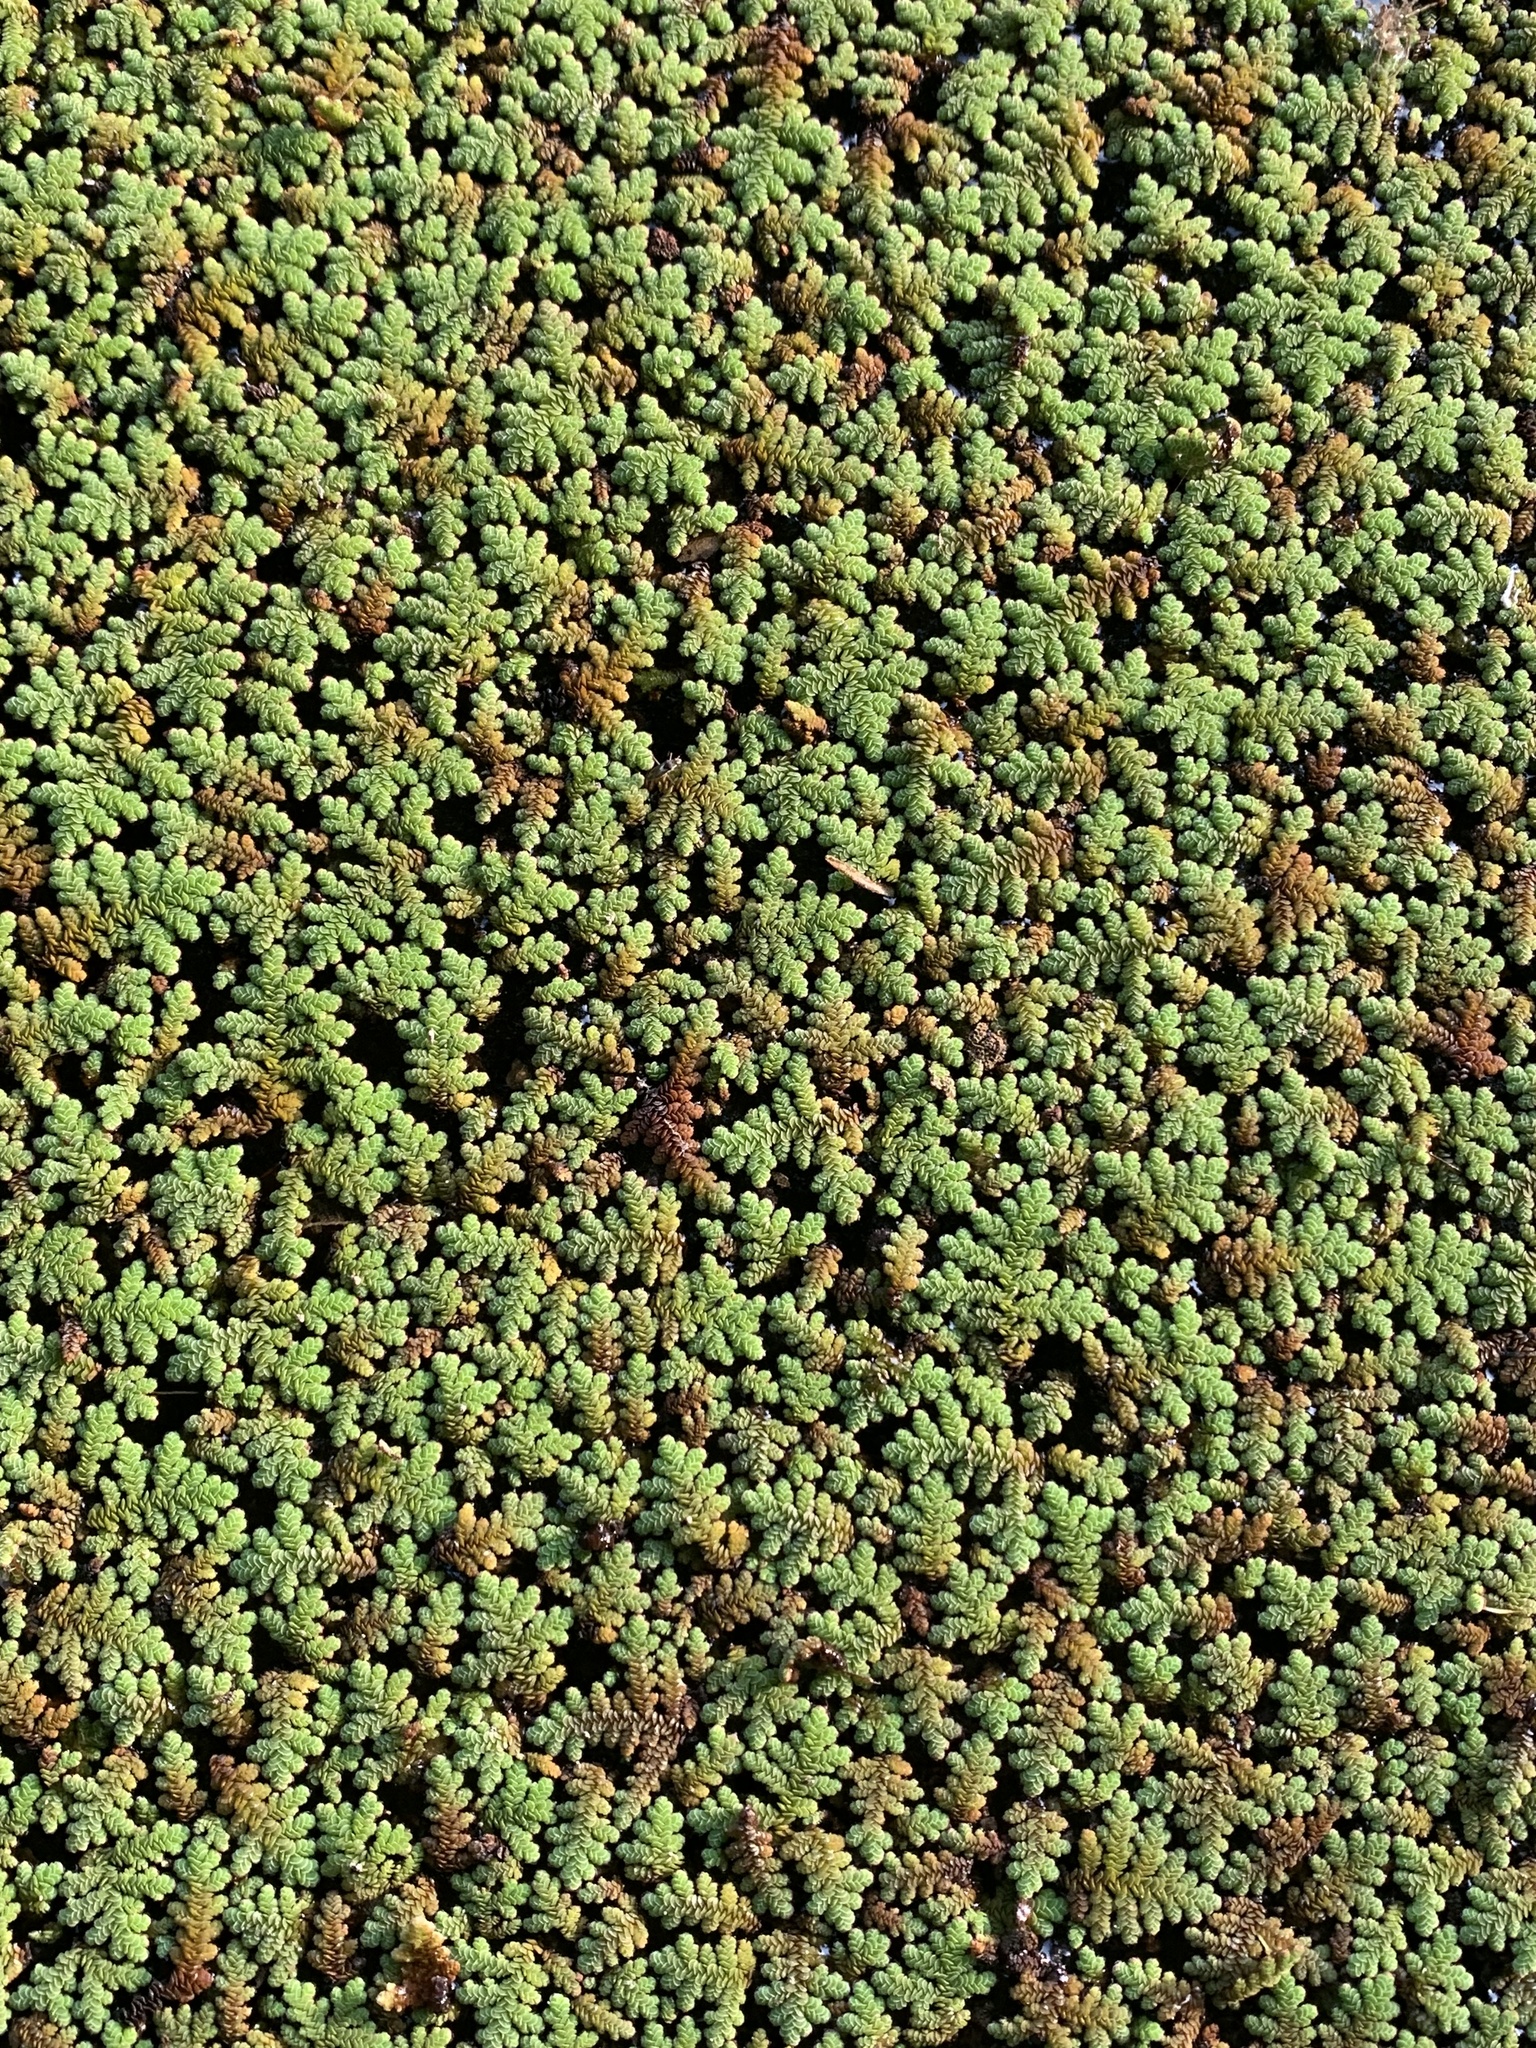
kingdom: Plantae
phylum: Tracheophyta
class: Polypodiopsida
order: Salviniales
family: Salviniaceae
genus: Azolla
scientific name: Azolla filiculoides
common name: Water fern
